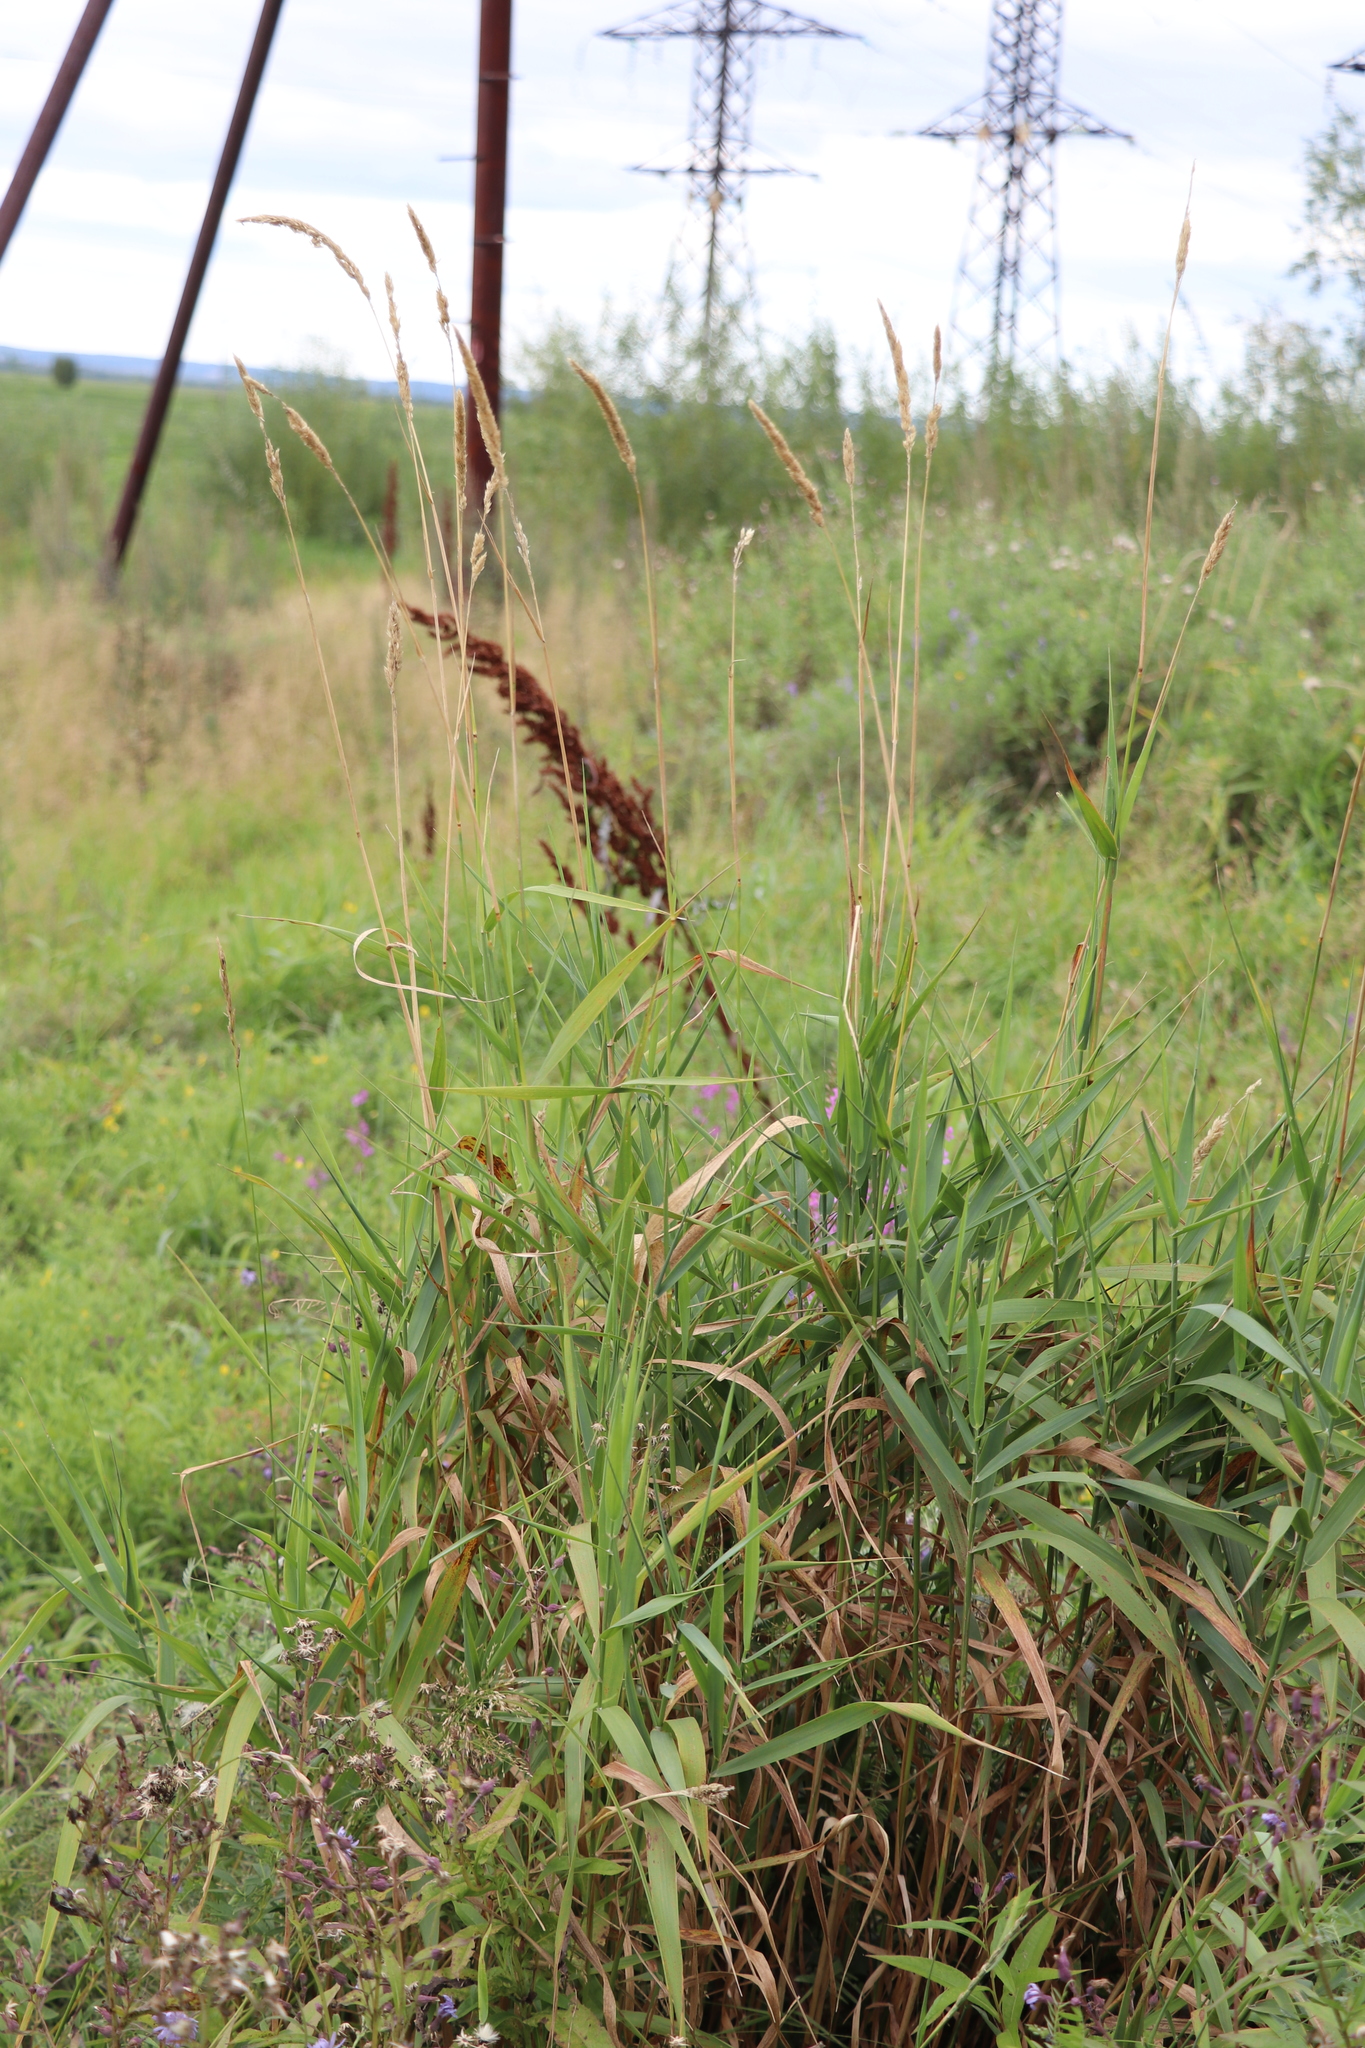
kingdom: Plantae
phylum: Tracheophyta
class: Liliopsida
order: Poales
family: Poaceae
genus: Phalaris
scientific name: Phalaris arundinacea
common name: Reed canary-grass
